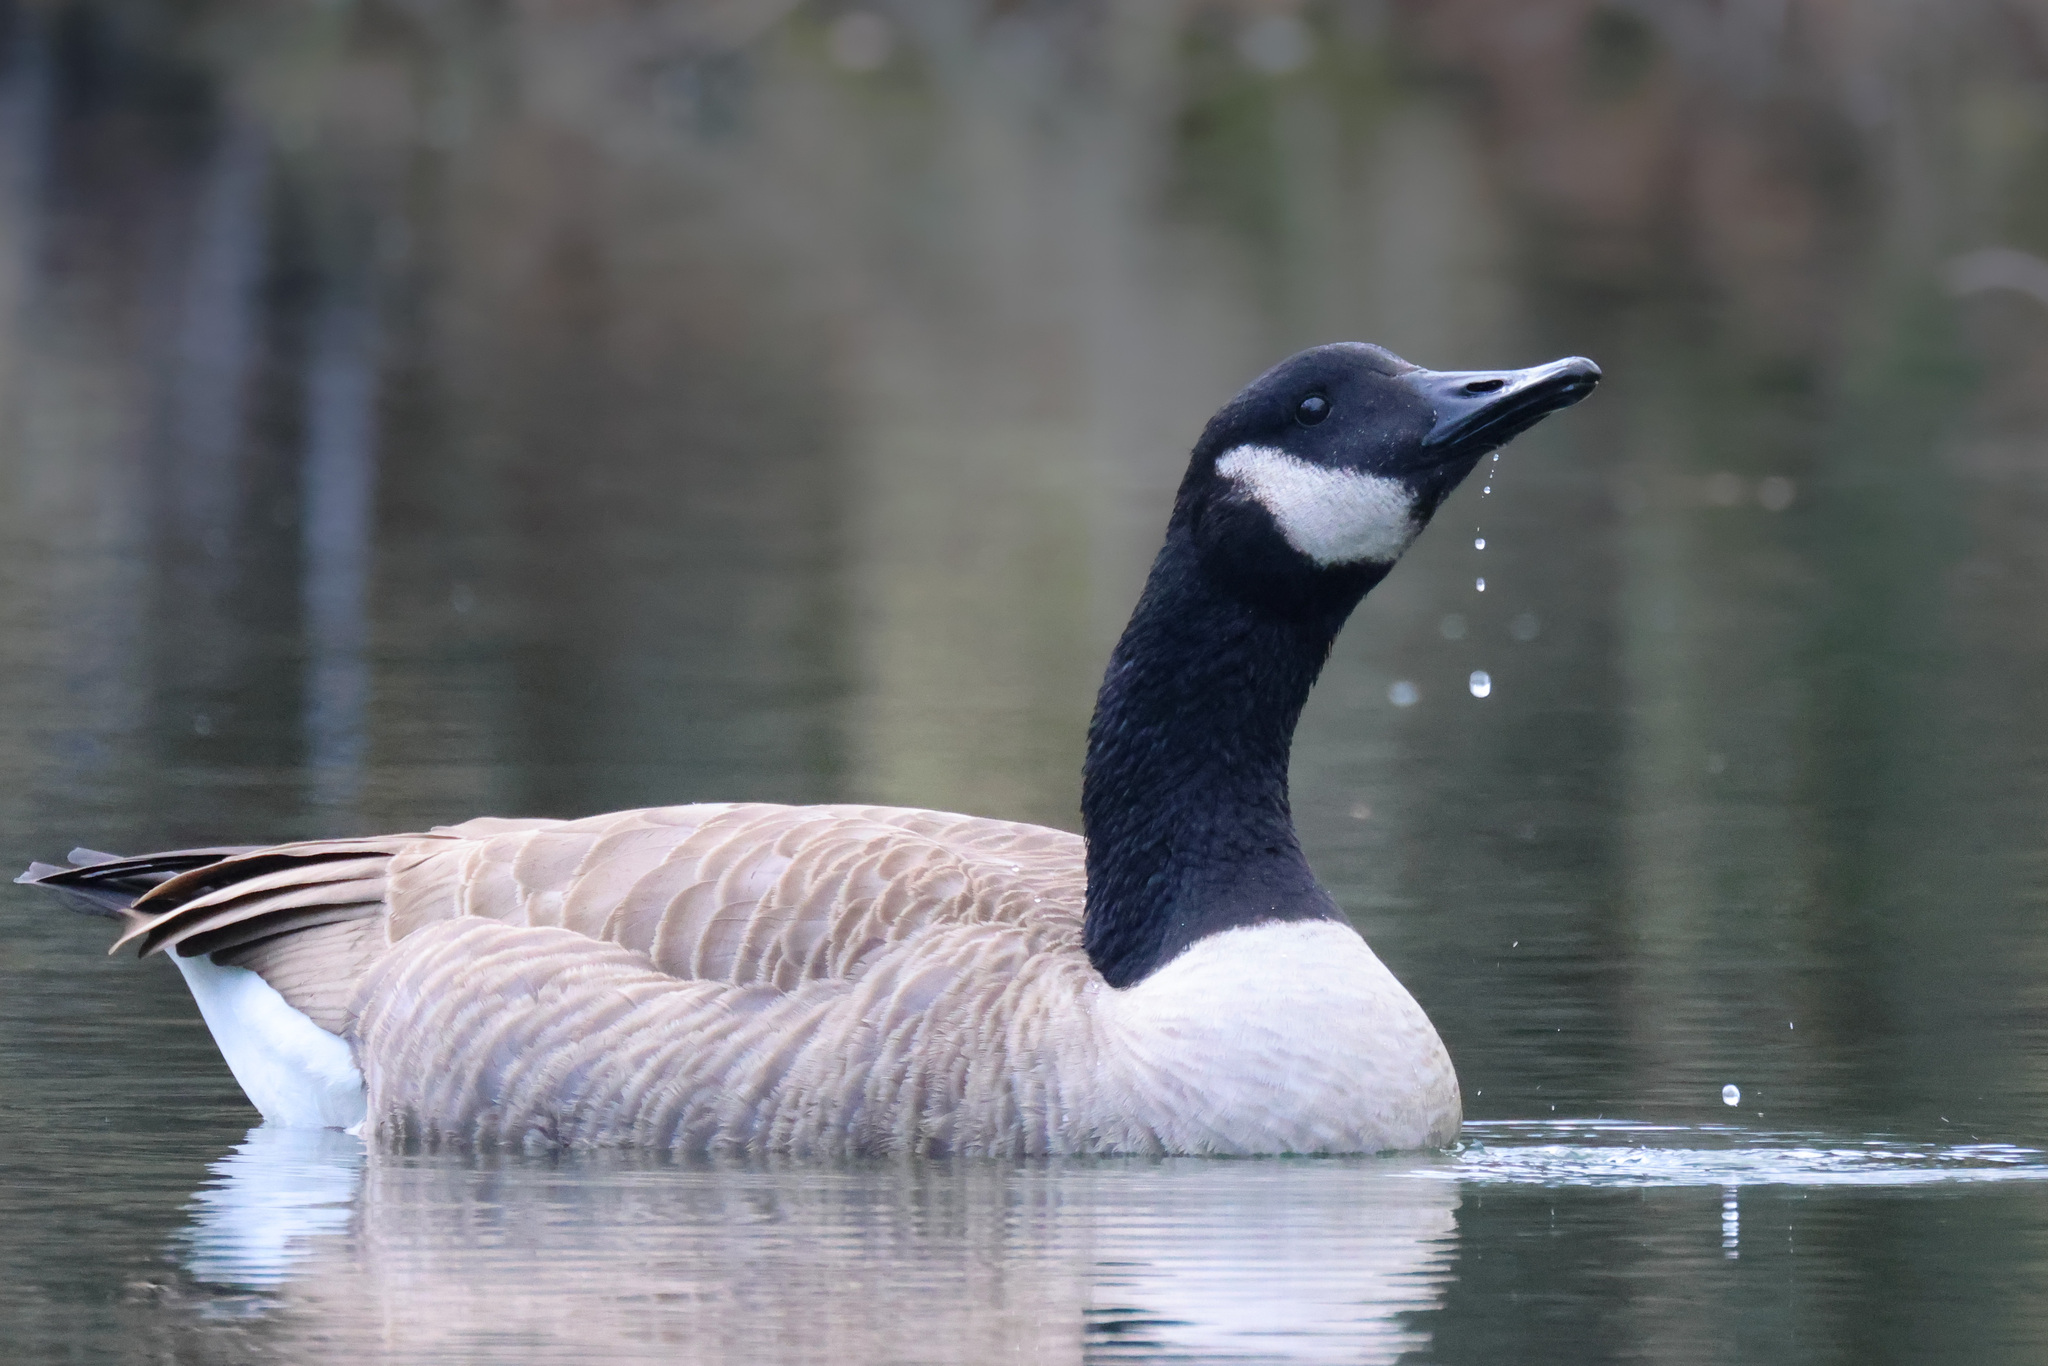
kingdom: Animalia
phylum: Chordata
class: Aves
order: Anseriformes
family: Anatidae
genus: Branta
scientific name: Branta canadensis
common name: Canada goose
